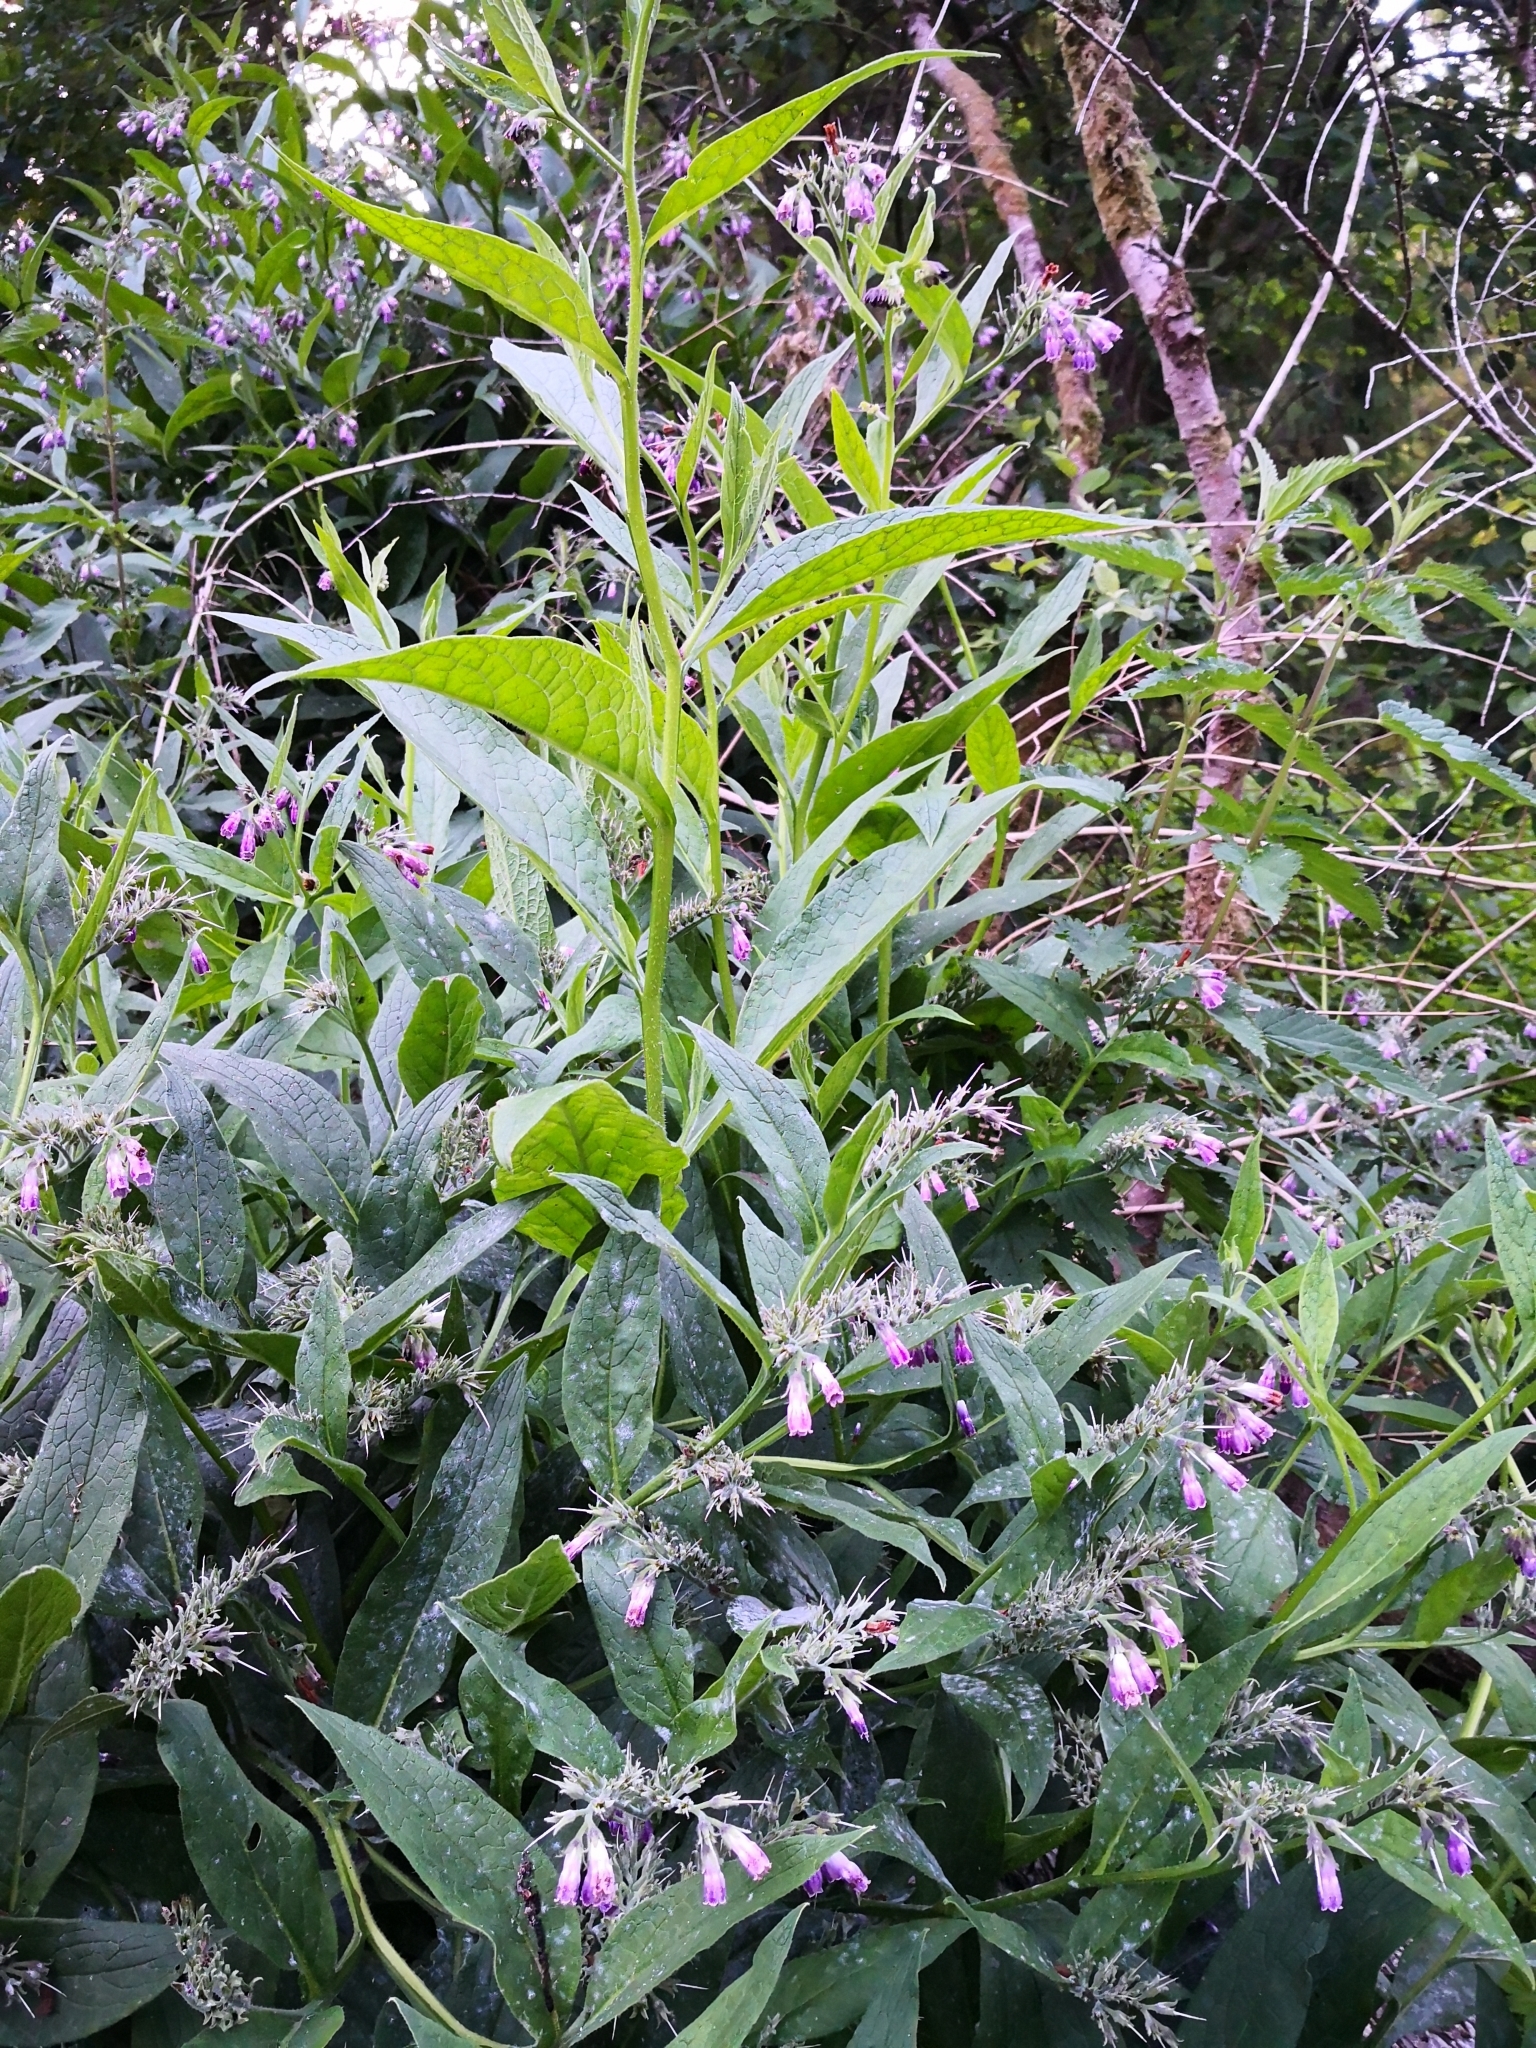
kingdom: Plantae
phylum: Tracheophyta
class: Magnoliopsida
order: Boraginales
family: Boraginaceae
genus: Symphytum
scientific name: Symphytum officinale
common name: Common comfrey
